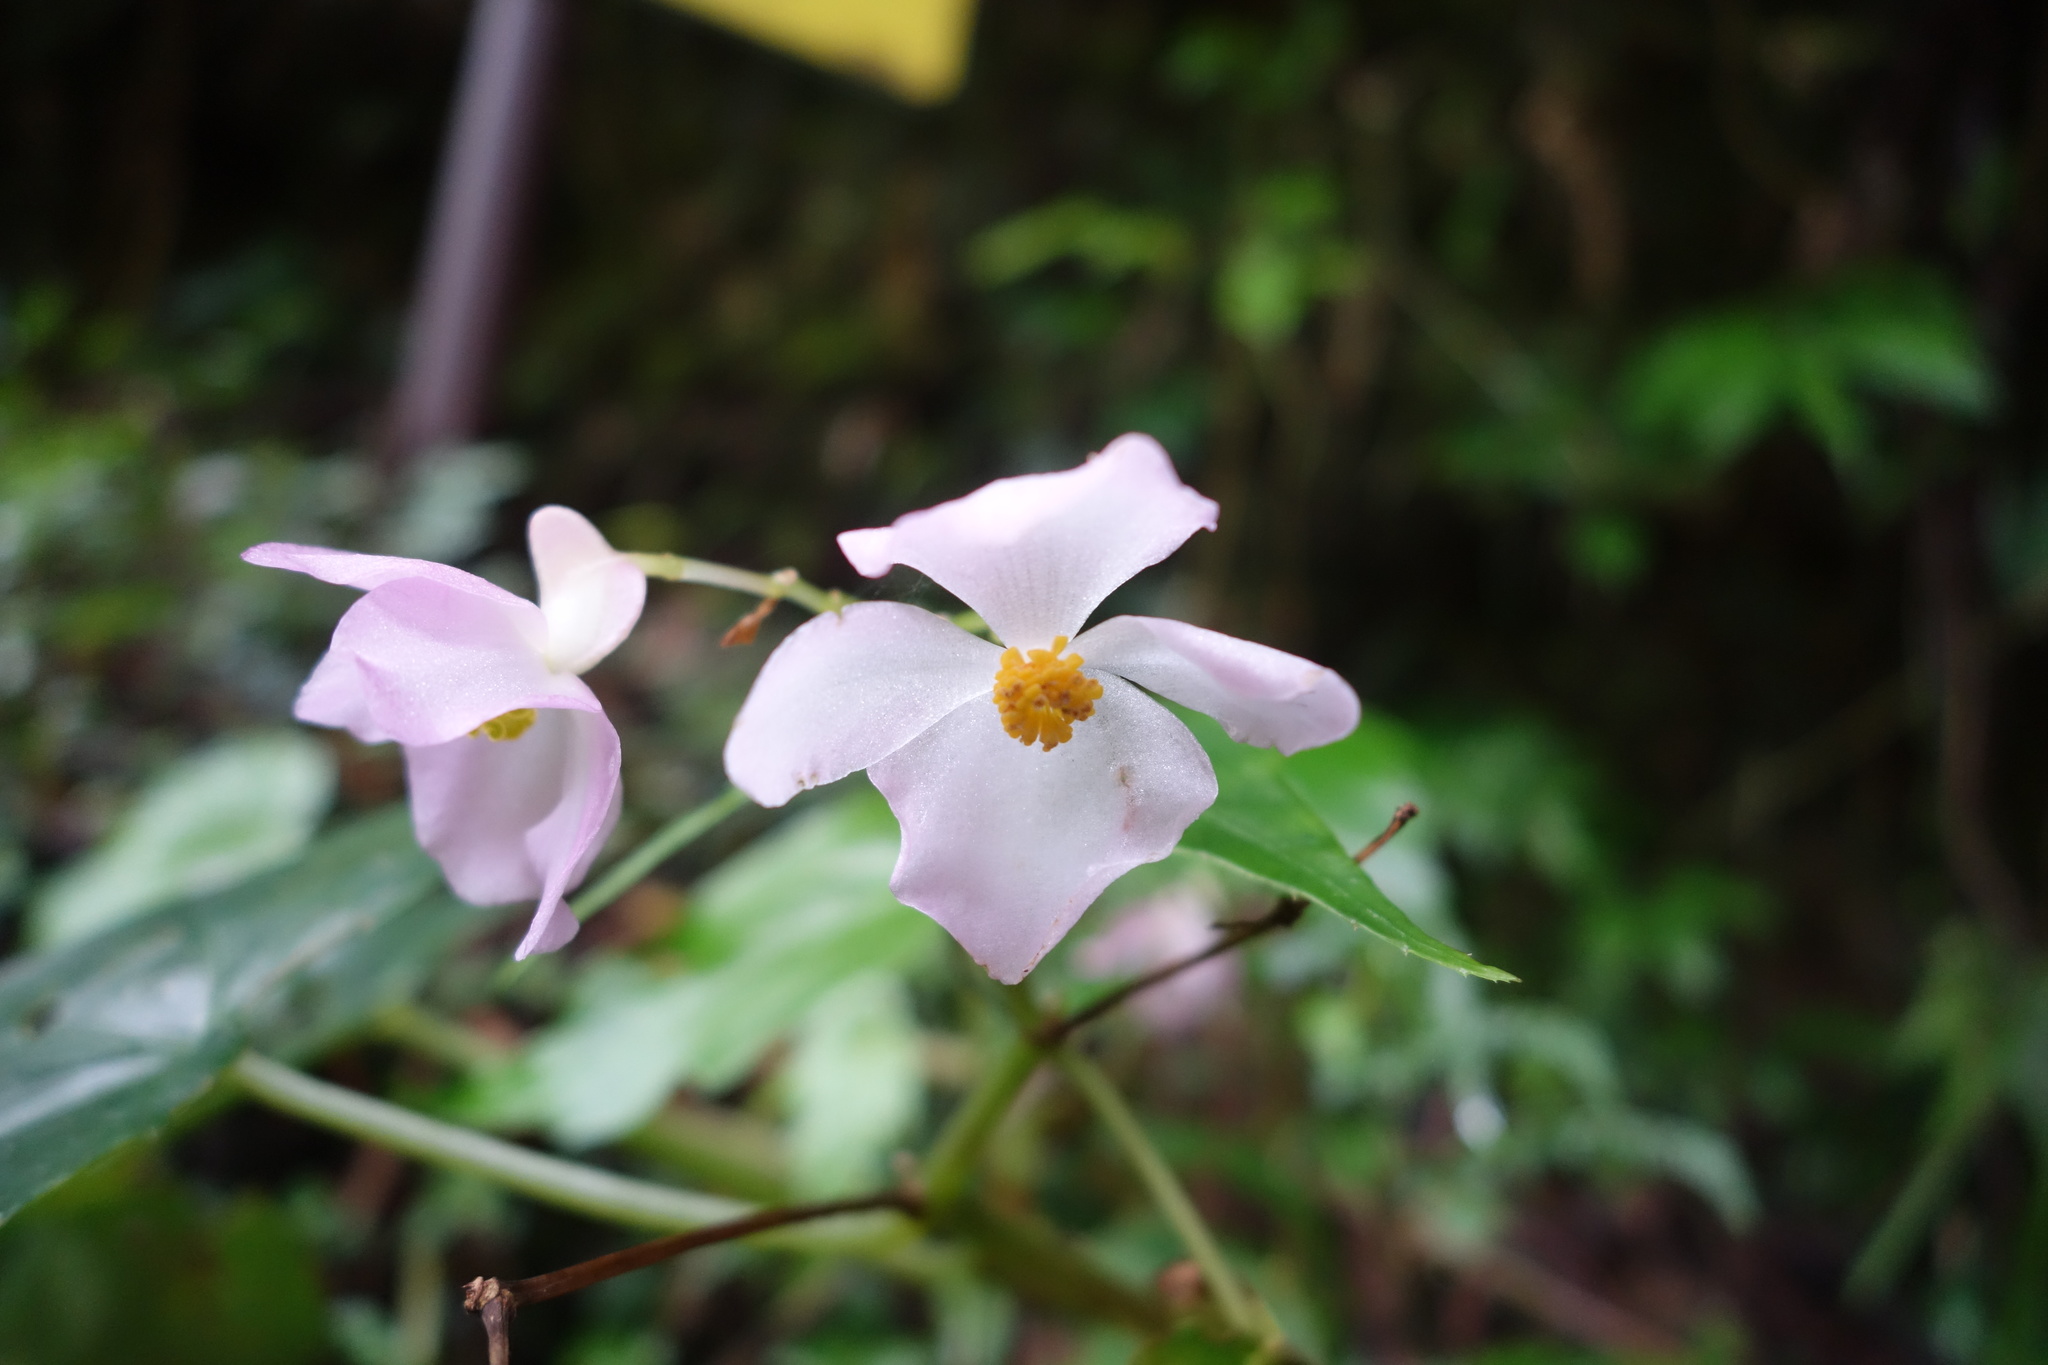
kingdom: Plantae
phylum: Tracheophyta
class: Magnoliopsida
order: Cucurbitales
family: Begoniaceae
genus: Begonia
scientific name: Begonia formosana
